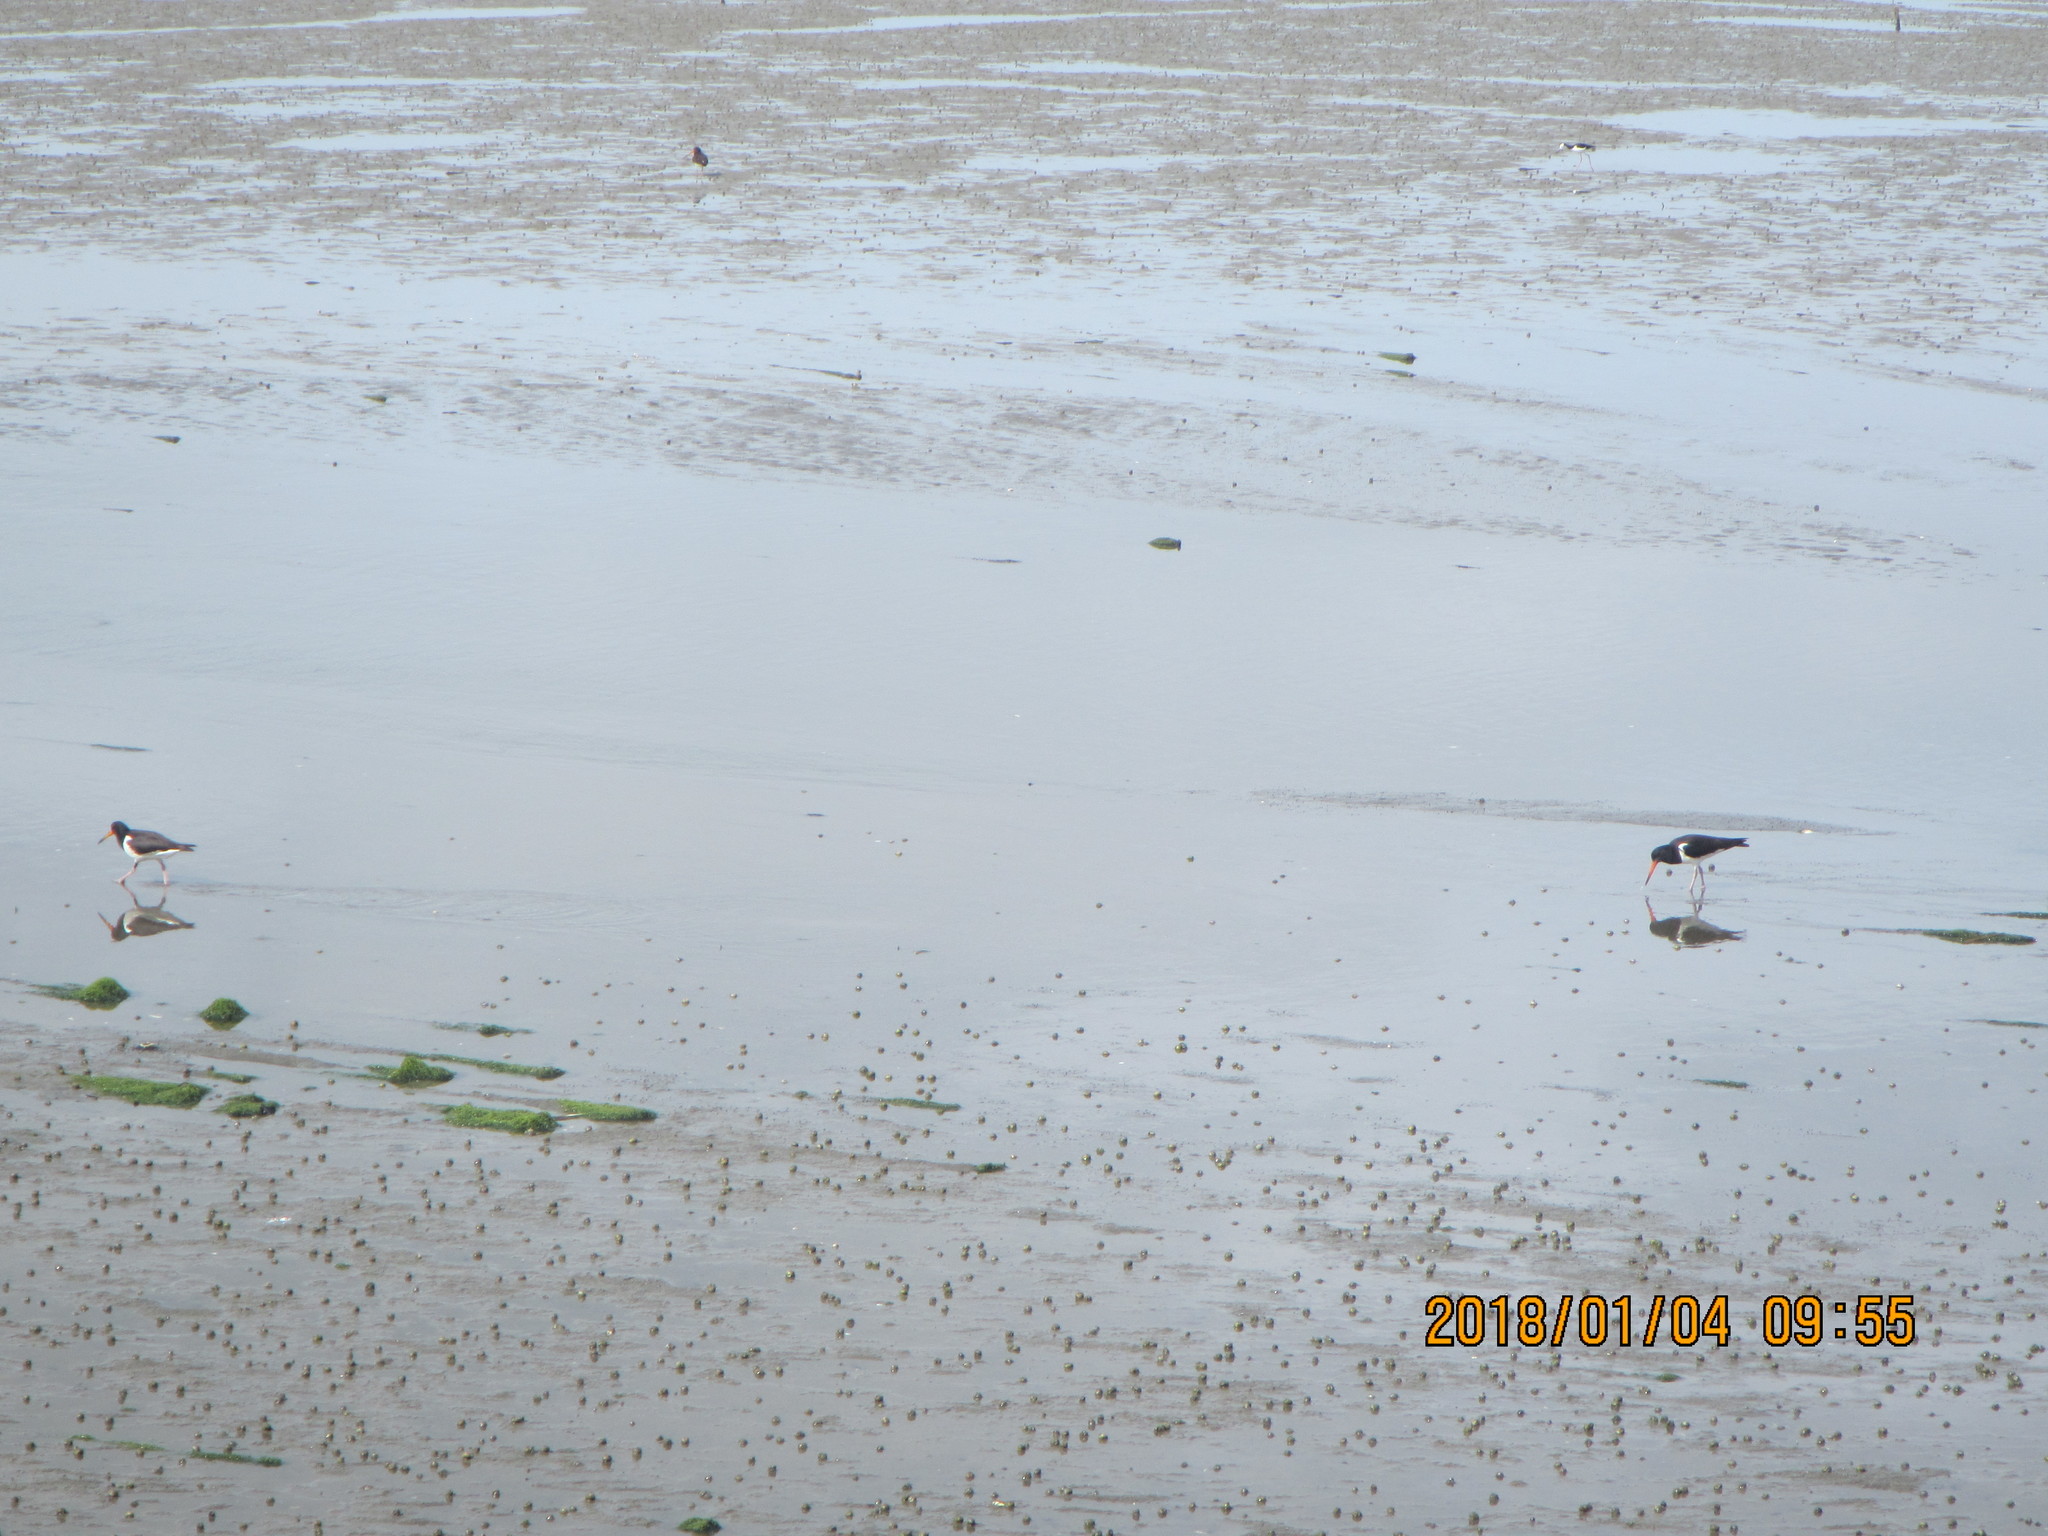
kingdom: Animalia
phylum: Chordata
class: Aves
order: Charadriiformes
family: Haematopodidae
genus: Haematopus
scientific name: Haematopus finschi
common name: South island oystercatcher
